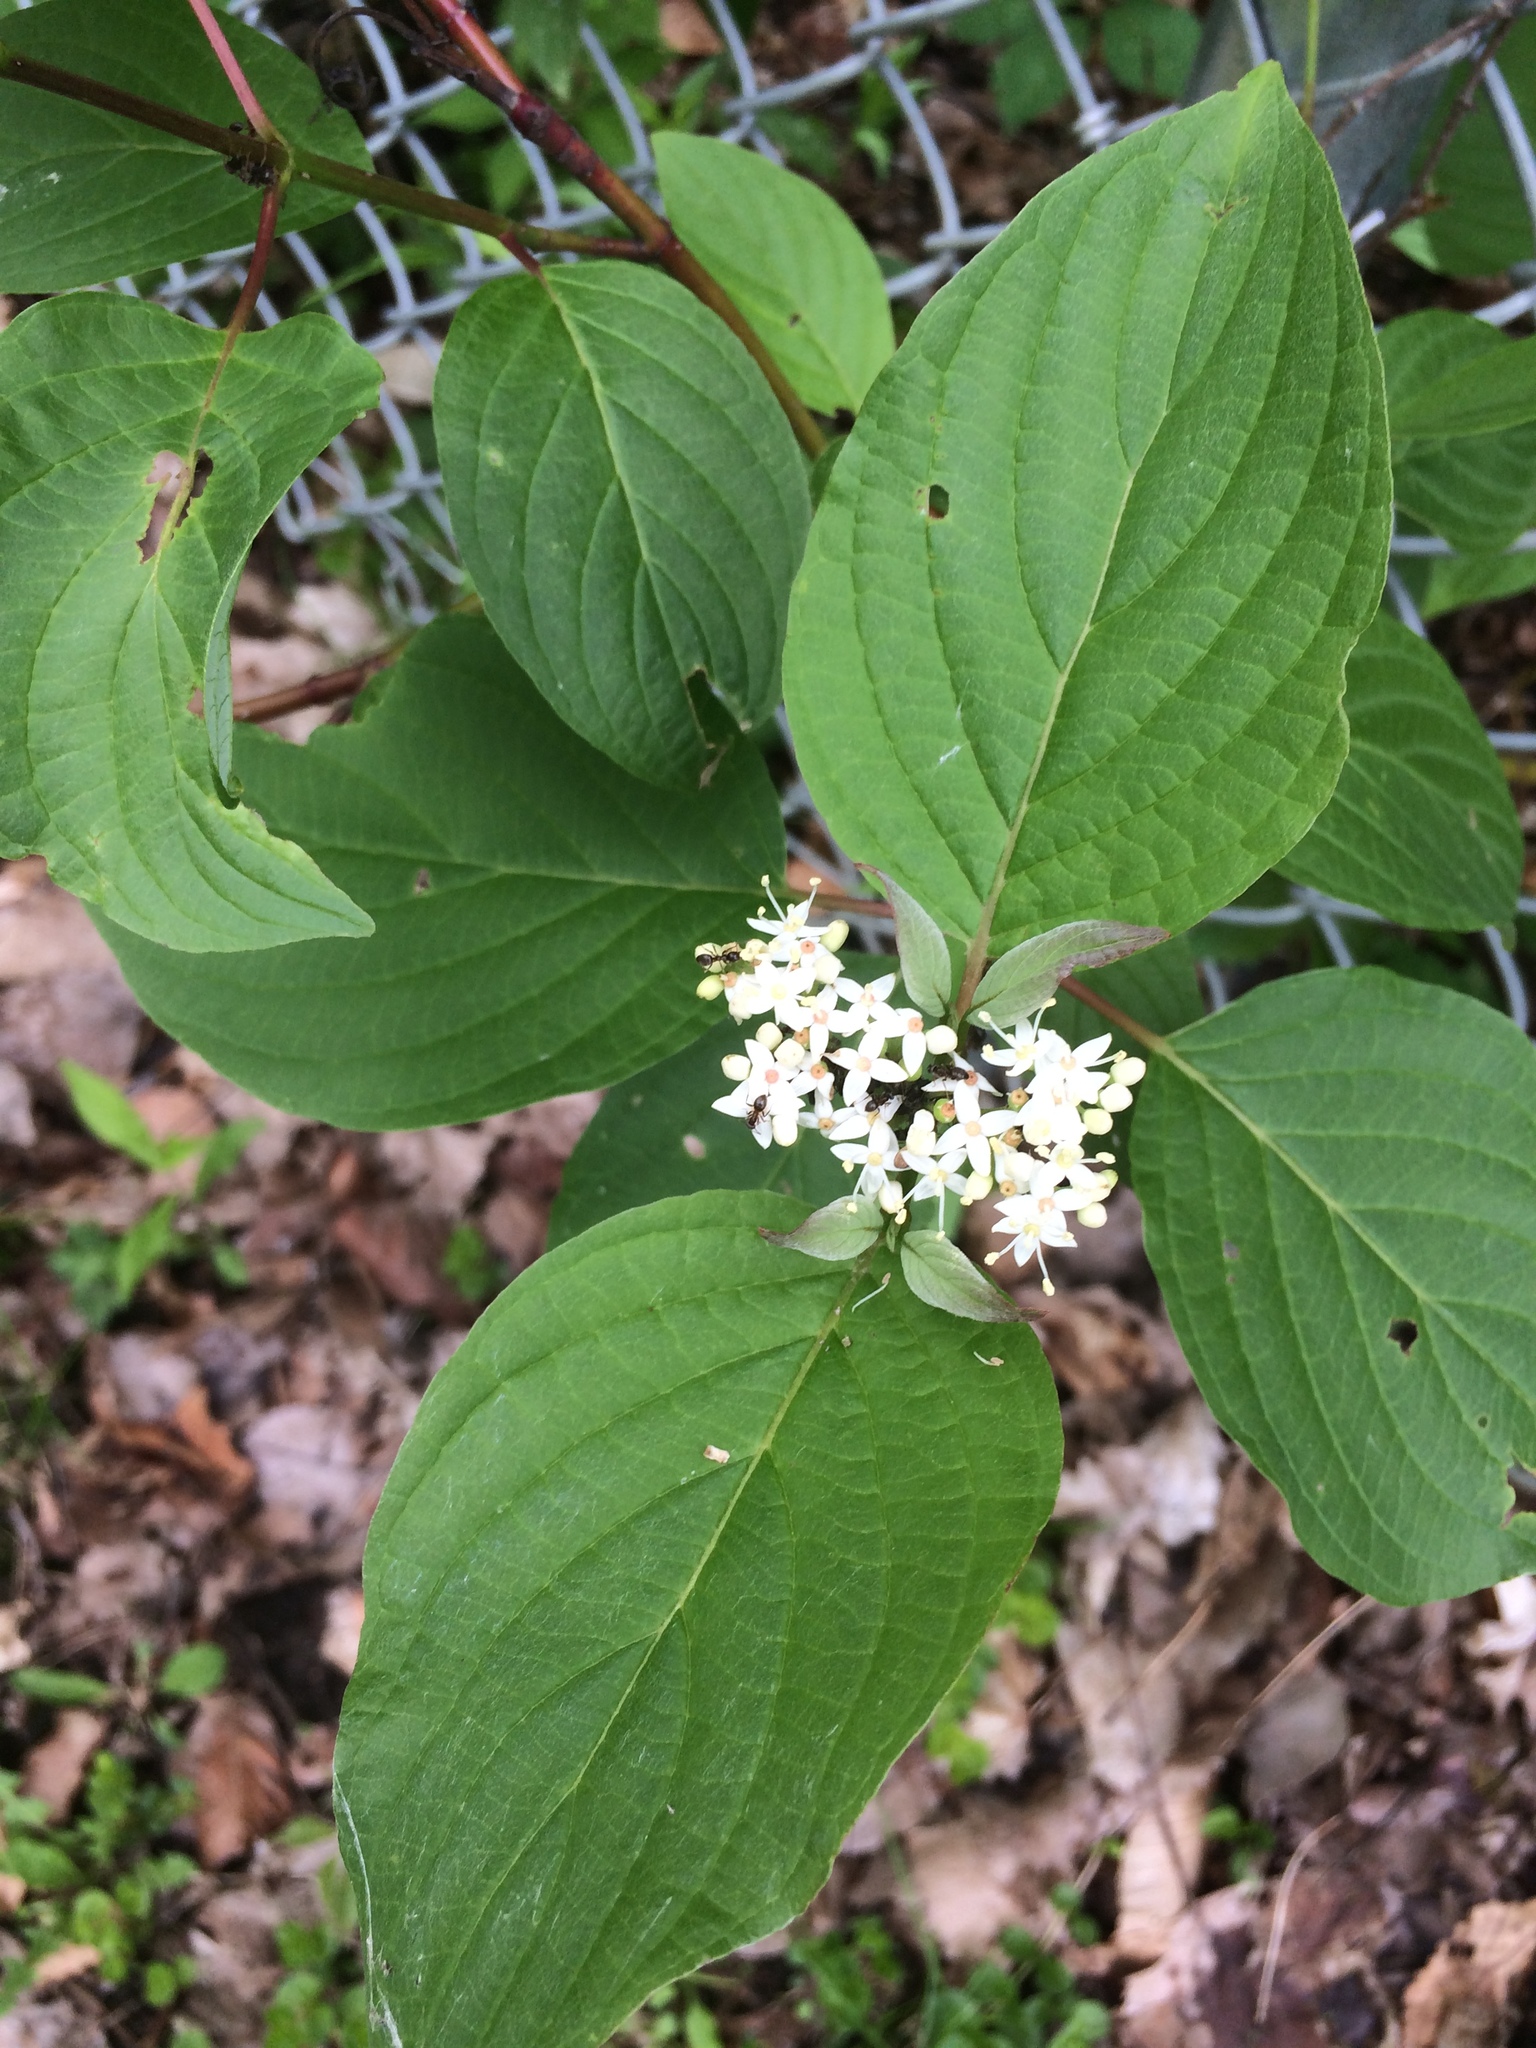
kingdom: Plantae
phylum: Tracheophyta
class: Magnoliopsida
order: Cornales
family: Cornaceae
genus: Cornus
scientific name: Cornus sericea
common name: Red-osier dogwood
